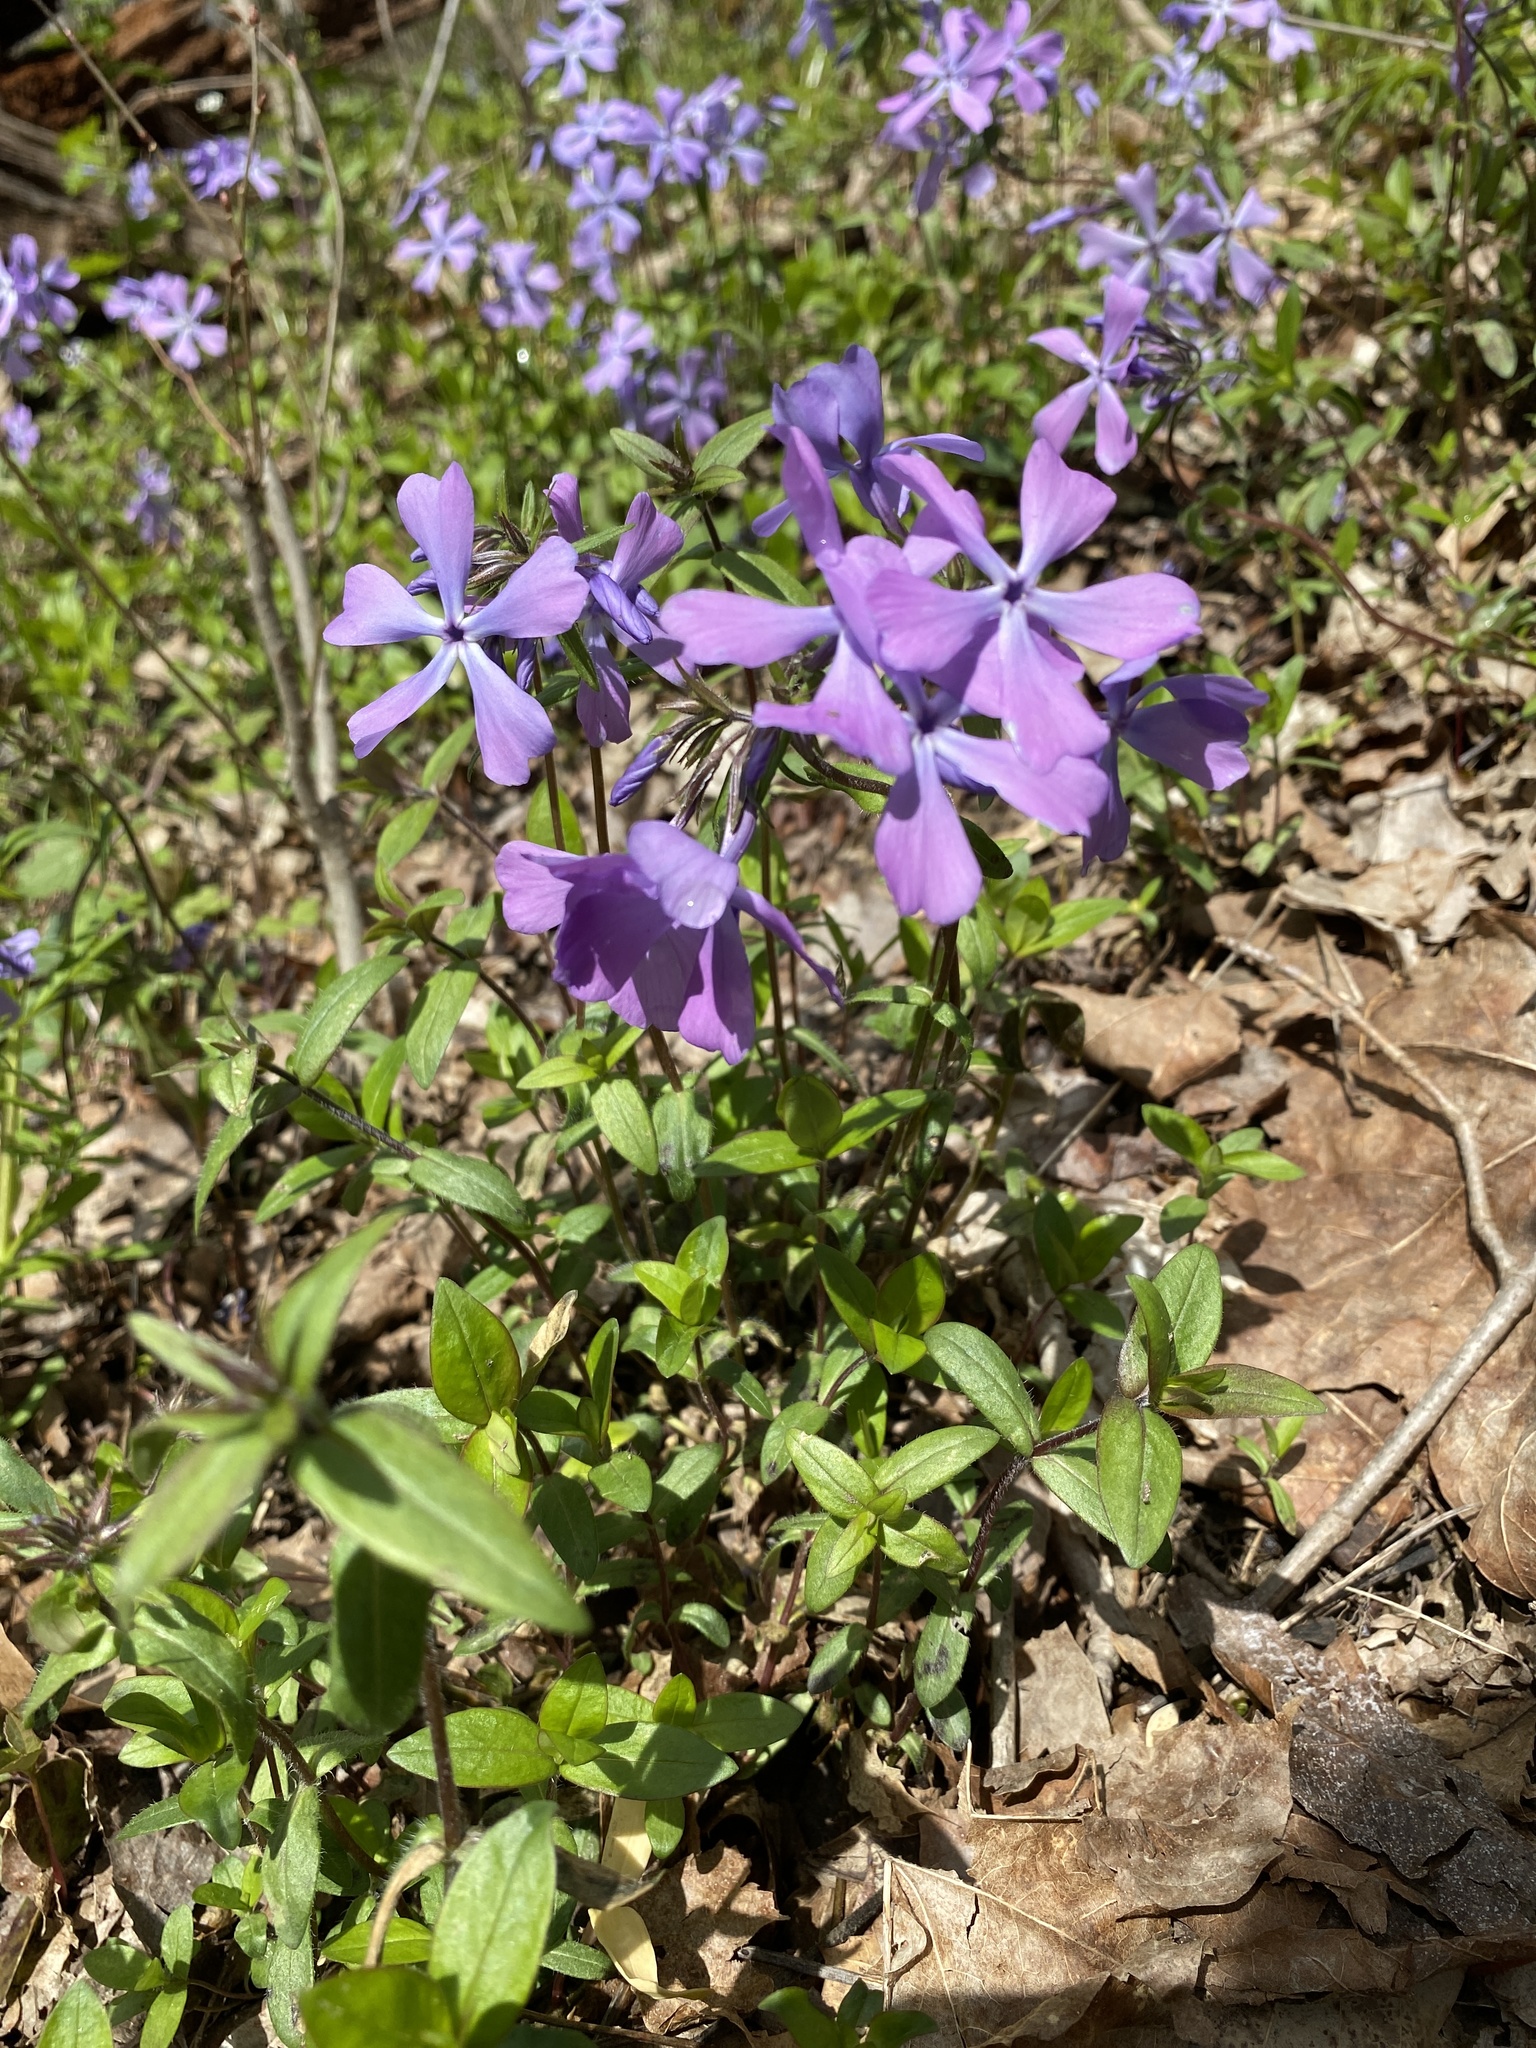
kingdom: Plantae
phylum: Tracheophyta
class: Magnoliopsida
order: Ericales
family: Polemoniaceae
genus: Phlox
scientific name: Phlox divaricata
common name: Blue phlox
